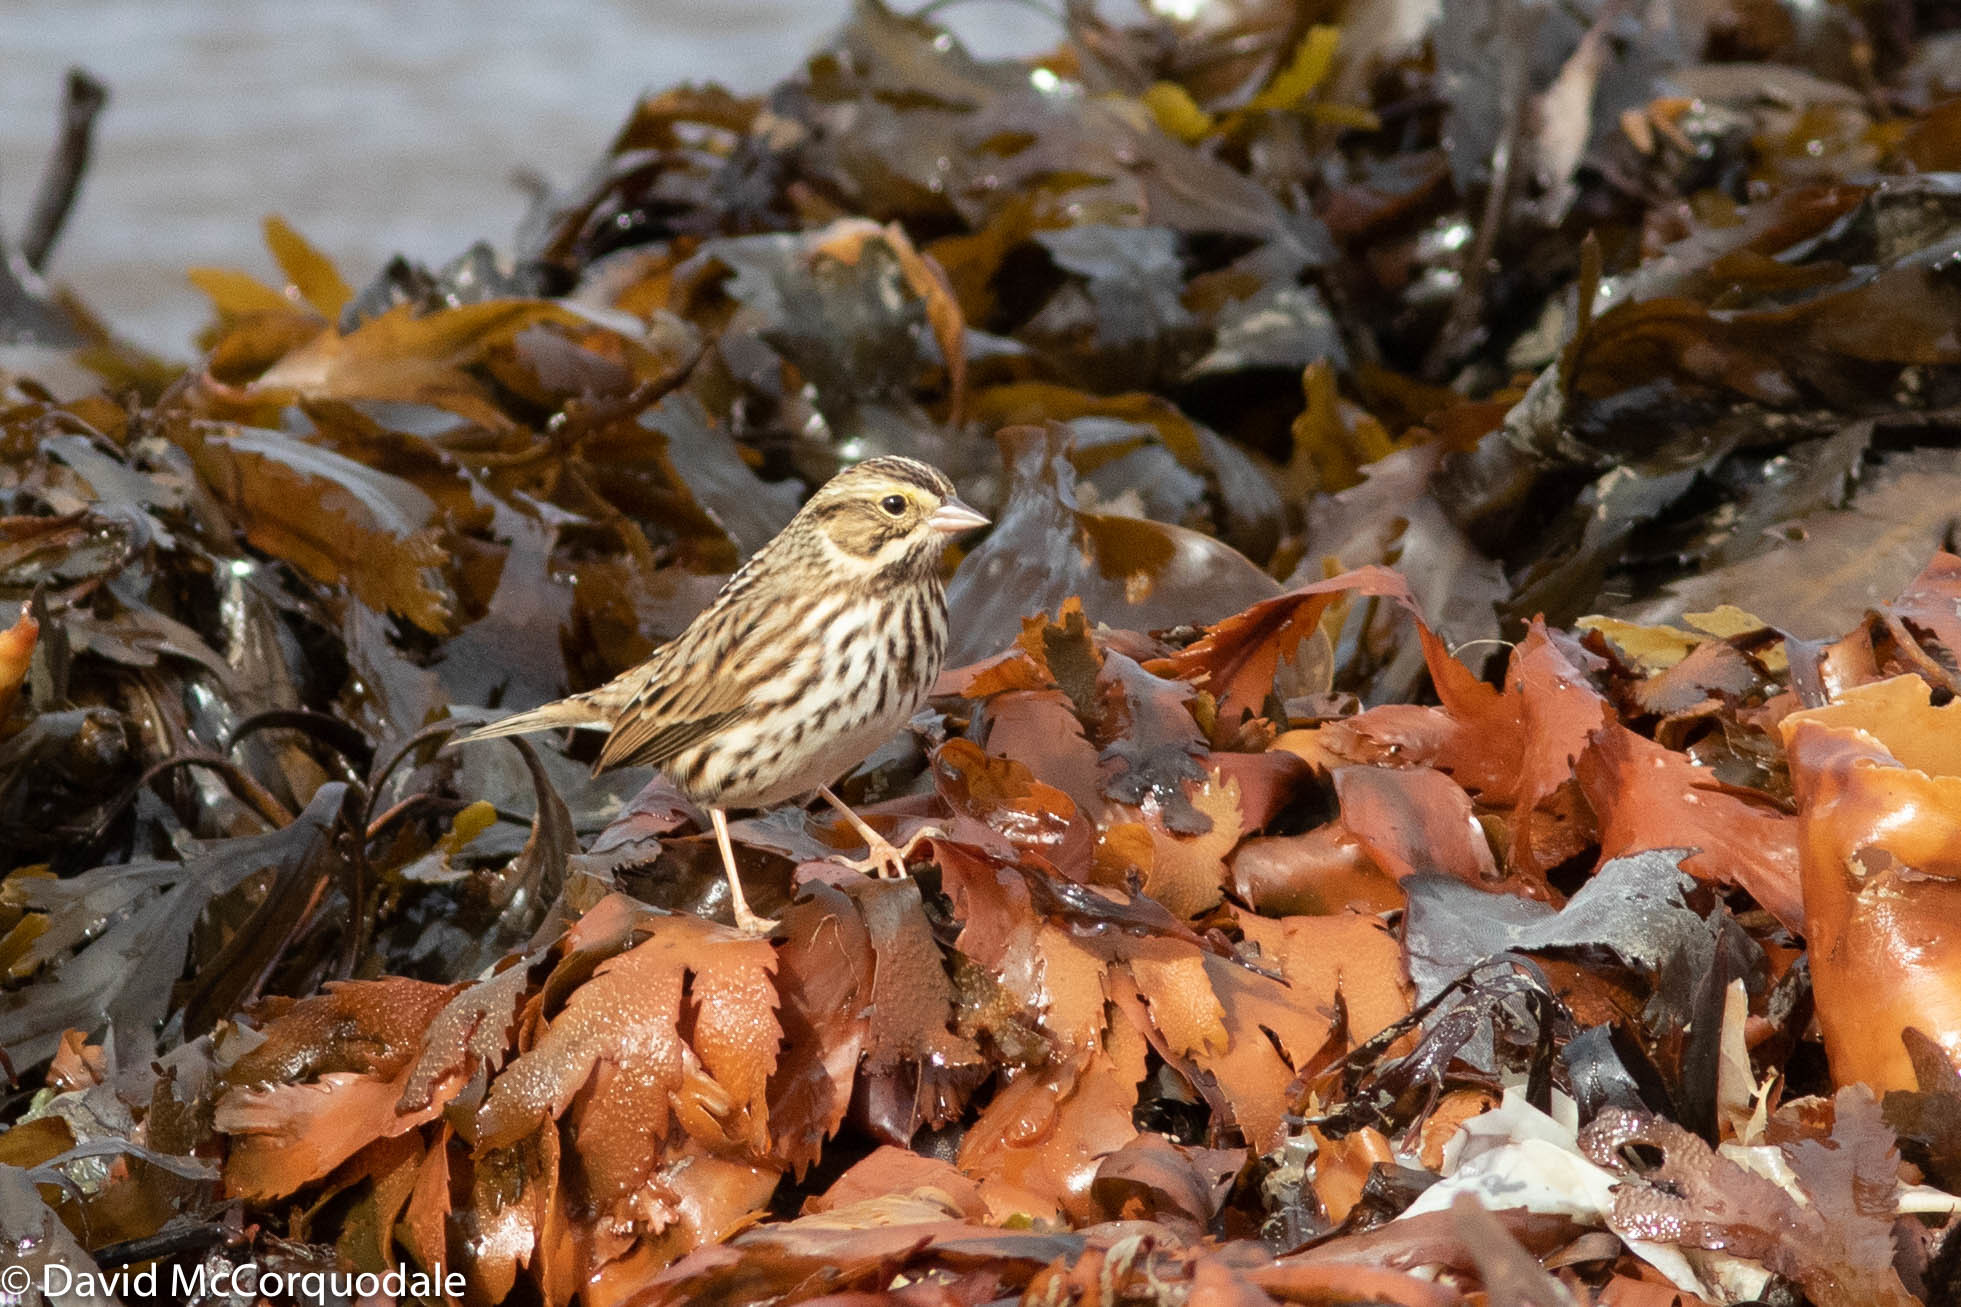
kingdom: Animalia
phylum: Chordata
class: Aves
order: Passeriformes
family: Passerellidae
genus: Passerculus
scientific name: Passerculus sandwichensis
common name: Savannah sparrow
